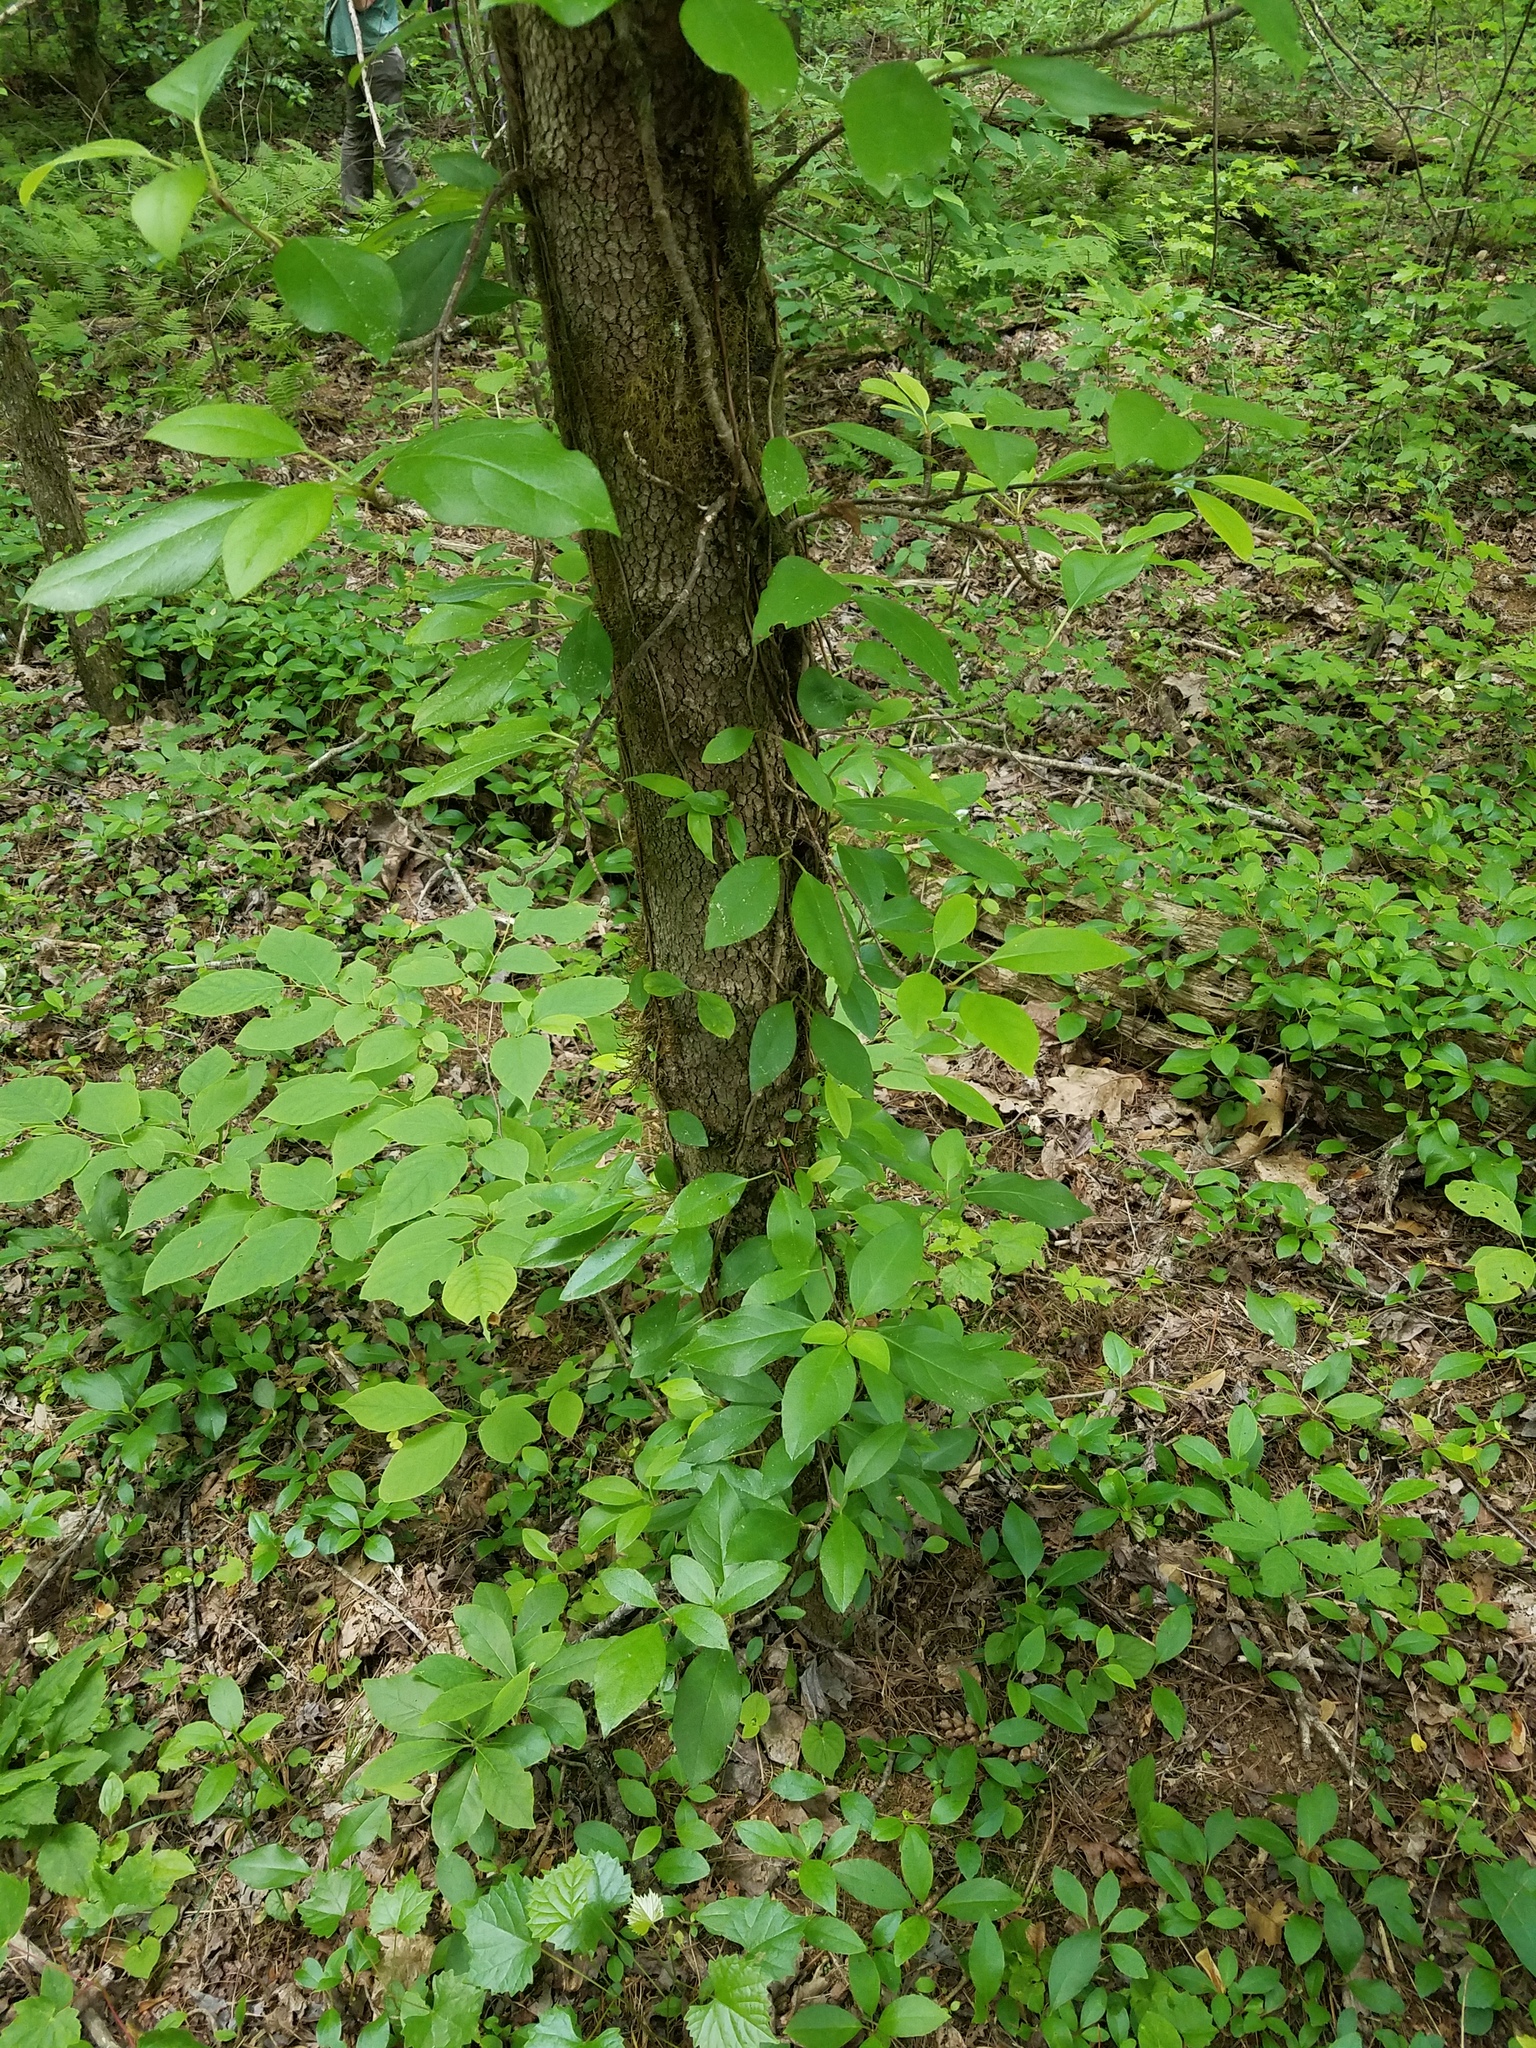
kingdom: Plantae
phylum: Tracheophyta
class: Magnoliopsida
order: Cornales
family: Hydrangeaceae
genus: Hydrangea
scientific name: Hydrangea barbara
